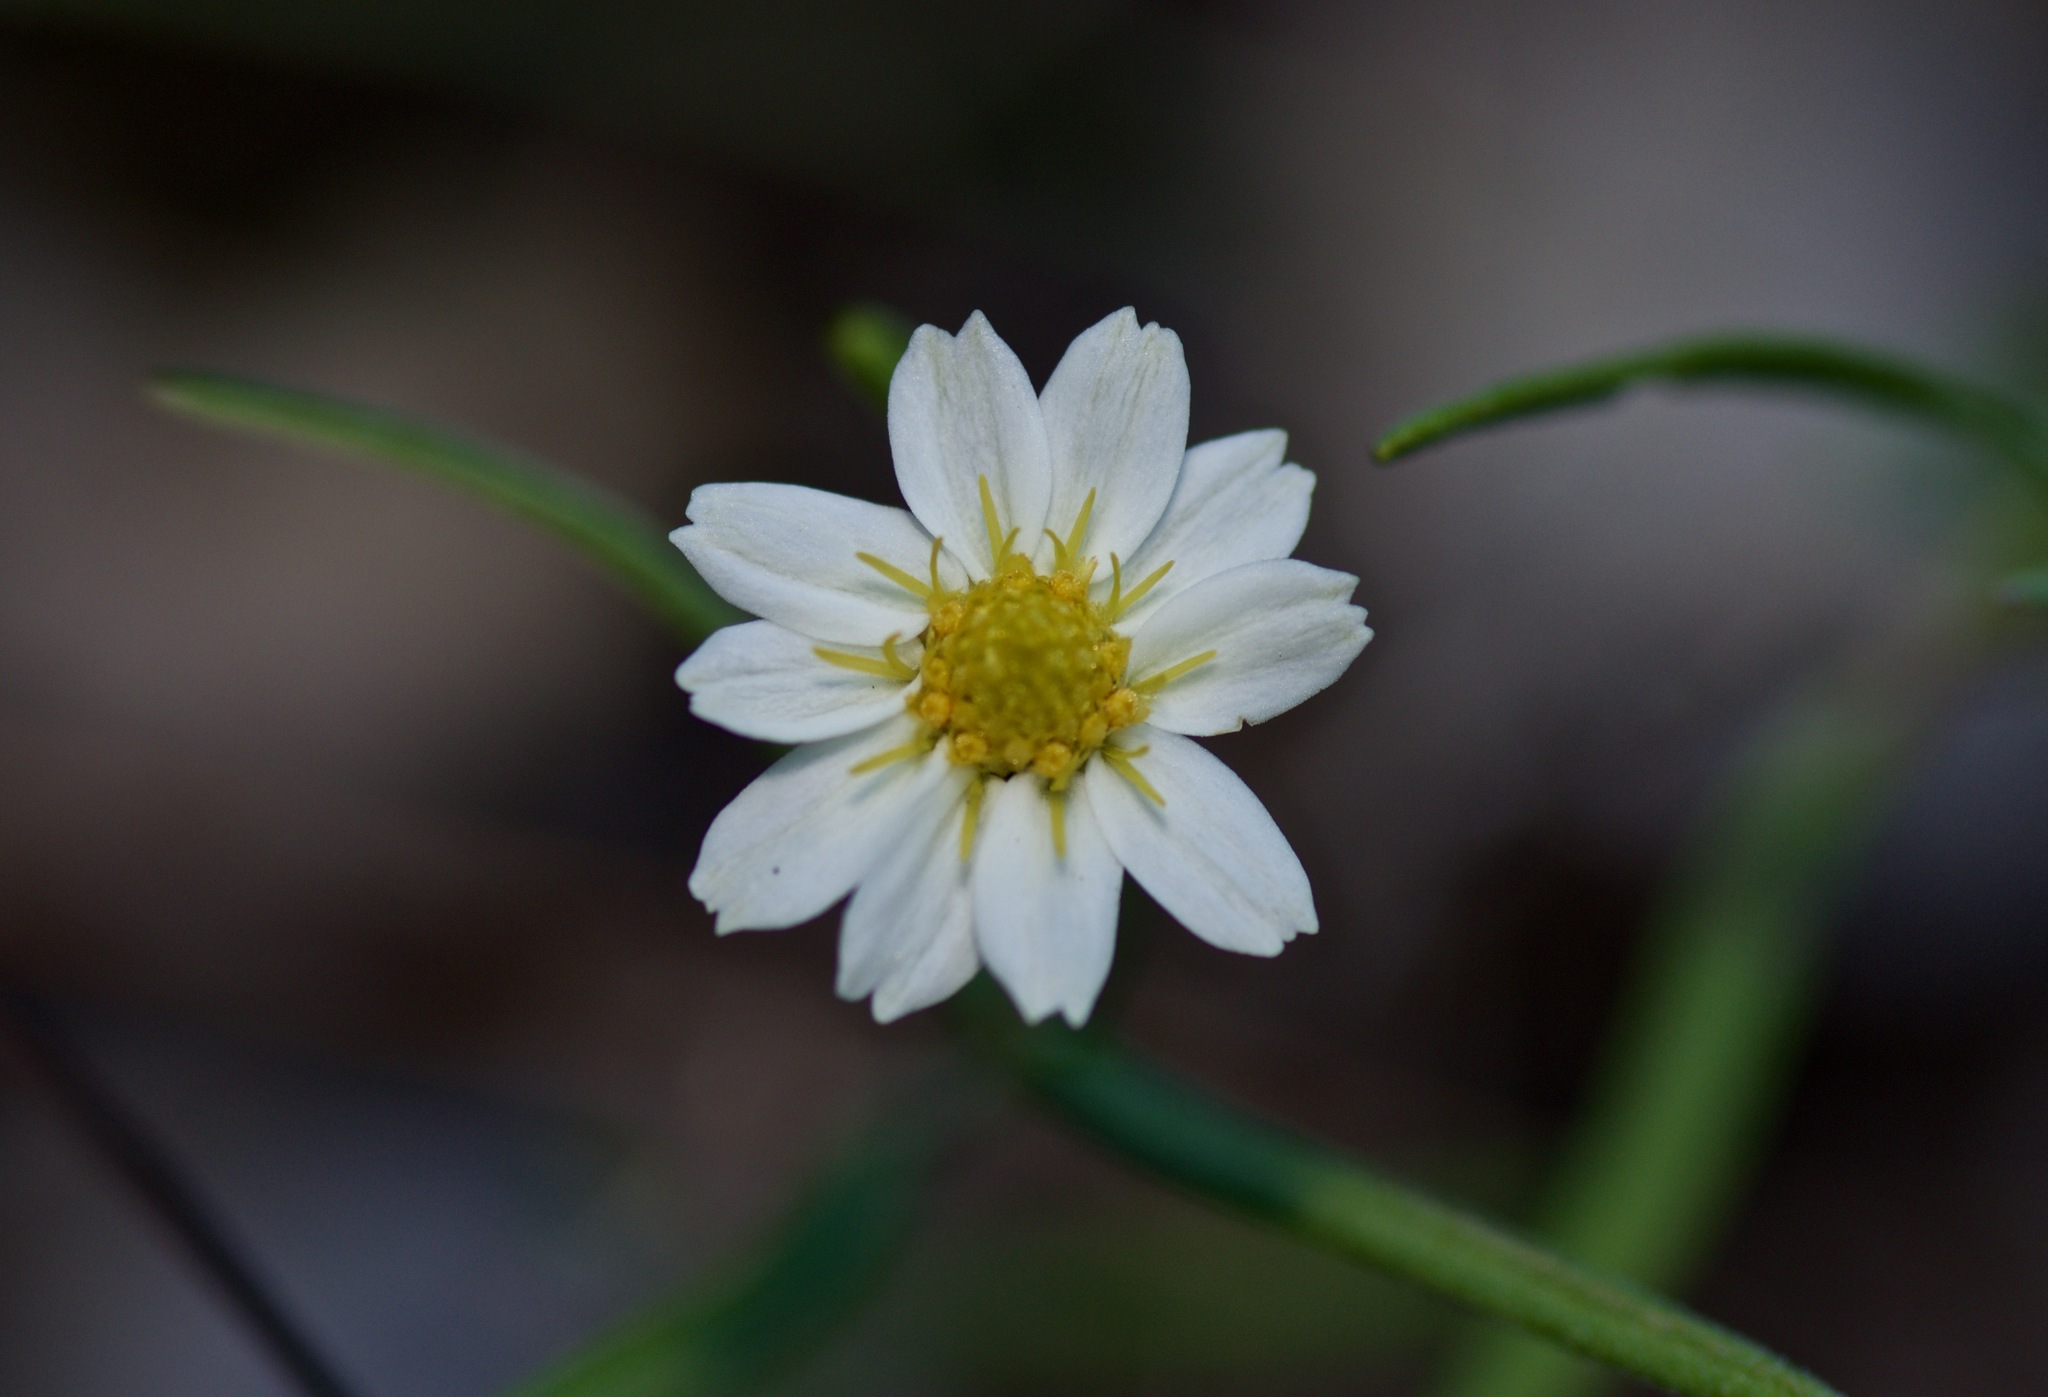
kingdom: Plantae
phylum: Tracheophyta
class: Magnoliopsida
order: Asterales
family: Asteraceae
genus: Melampodium
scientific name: Melampodium leucanthum
